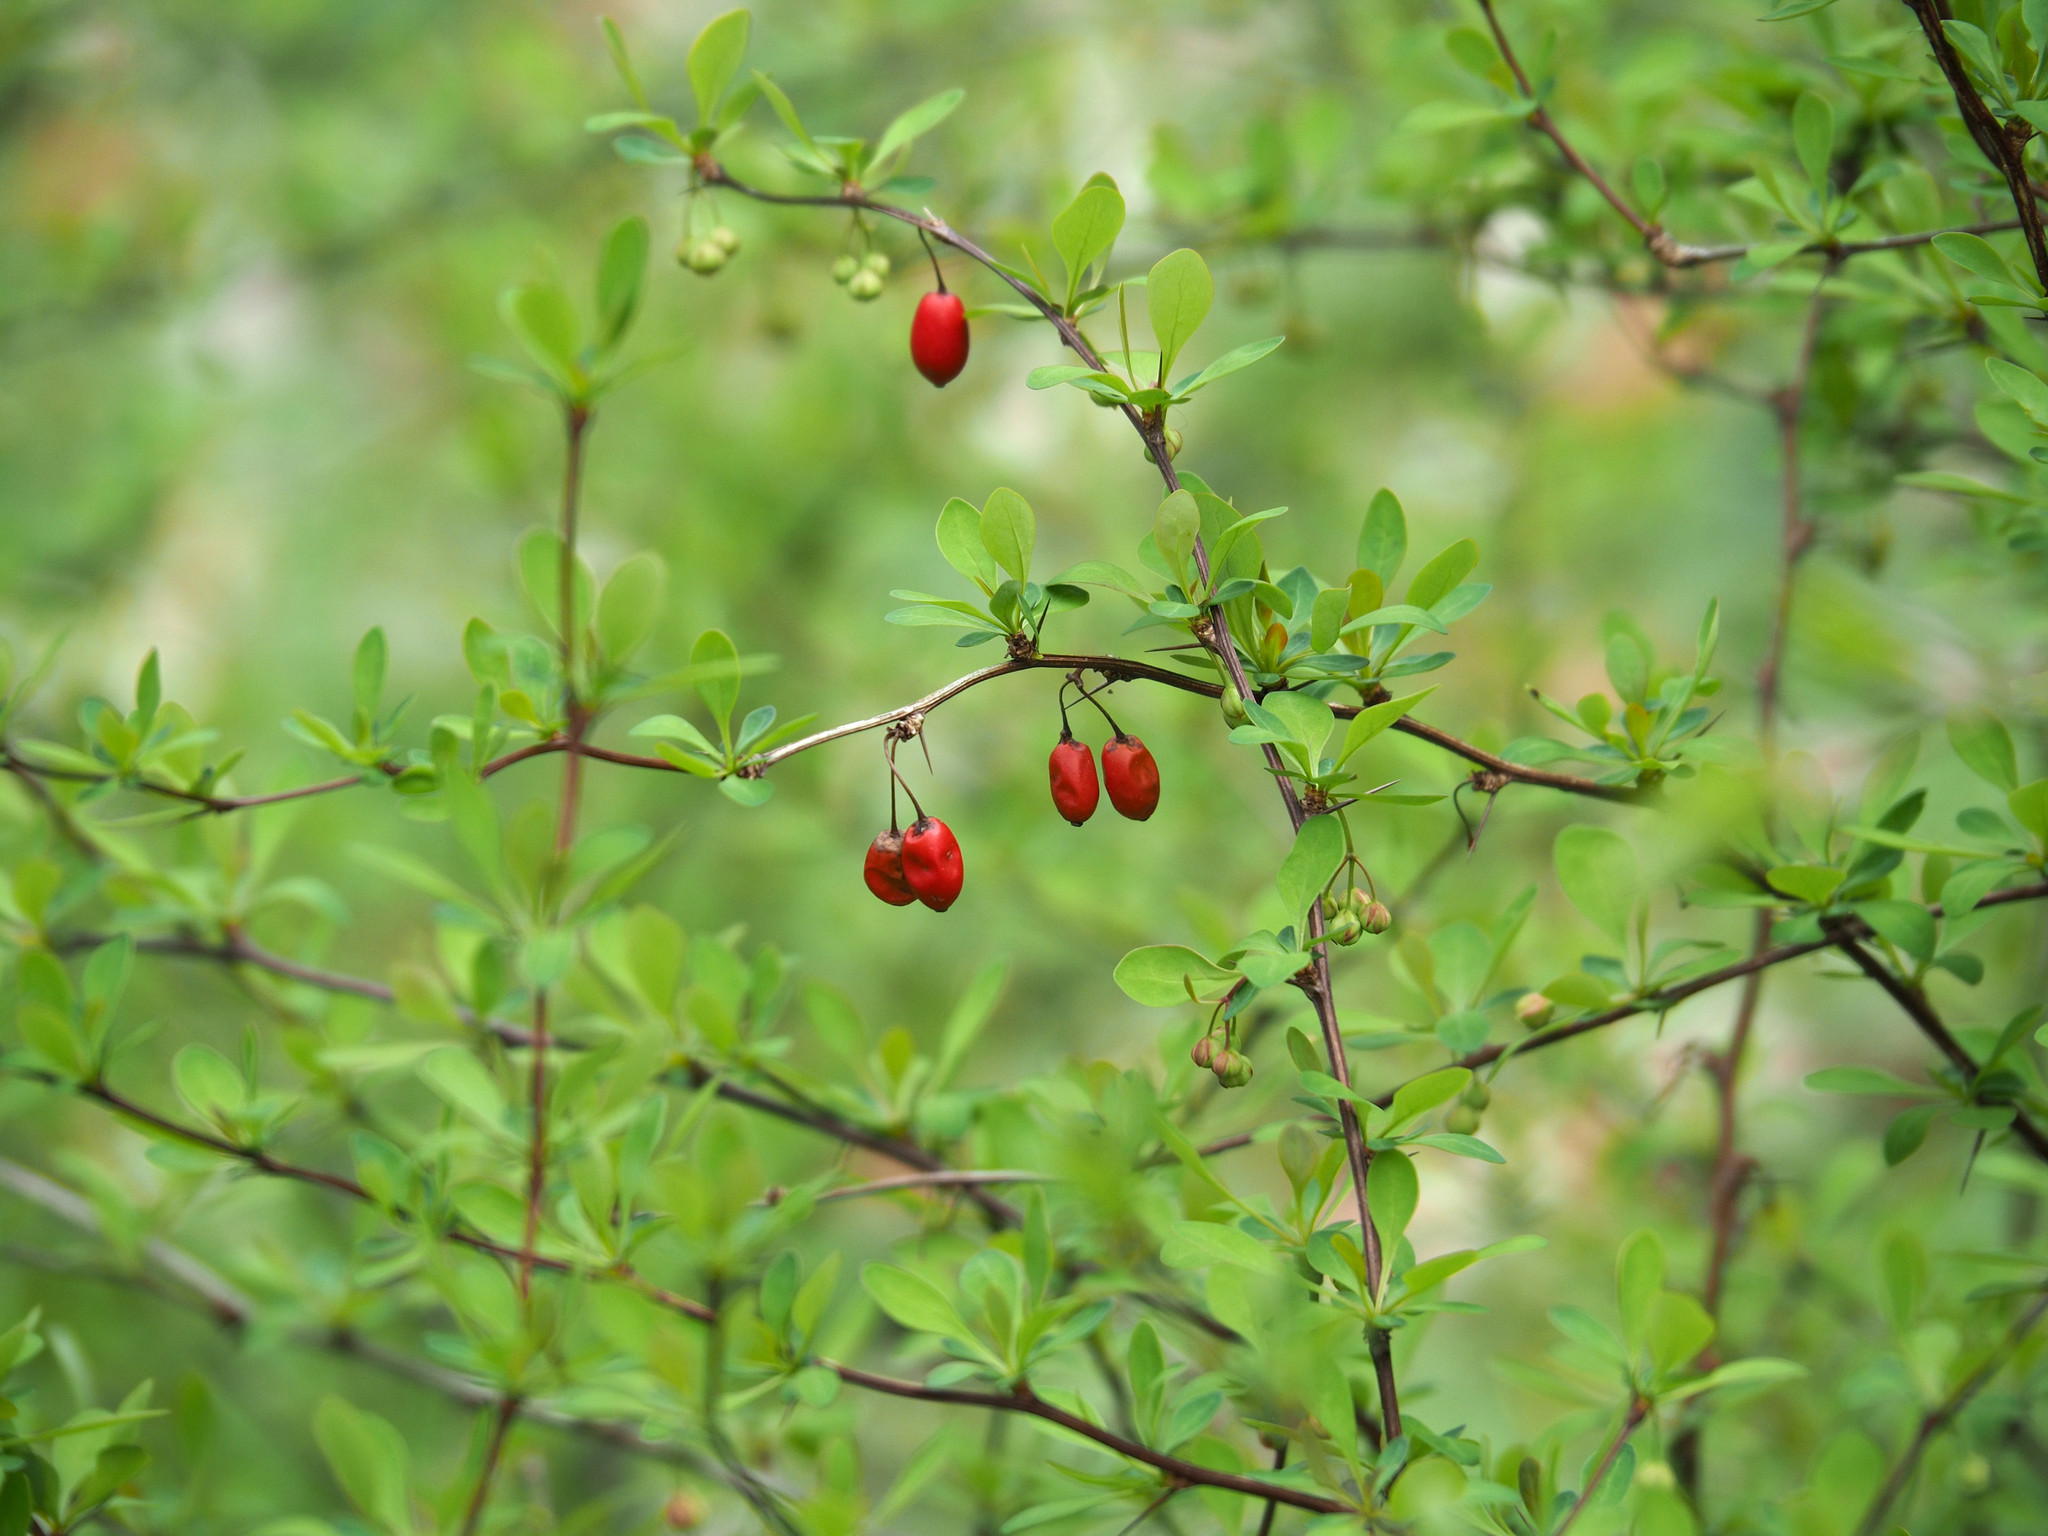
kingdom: Plantae
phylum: Tracheophyta
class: Magnoliopsida
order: Ranunculales
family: Berberidaceae
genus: Berberis
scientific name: Berberis thunbergii
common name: Japanese barberry
